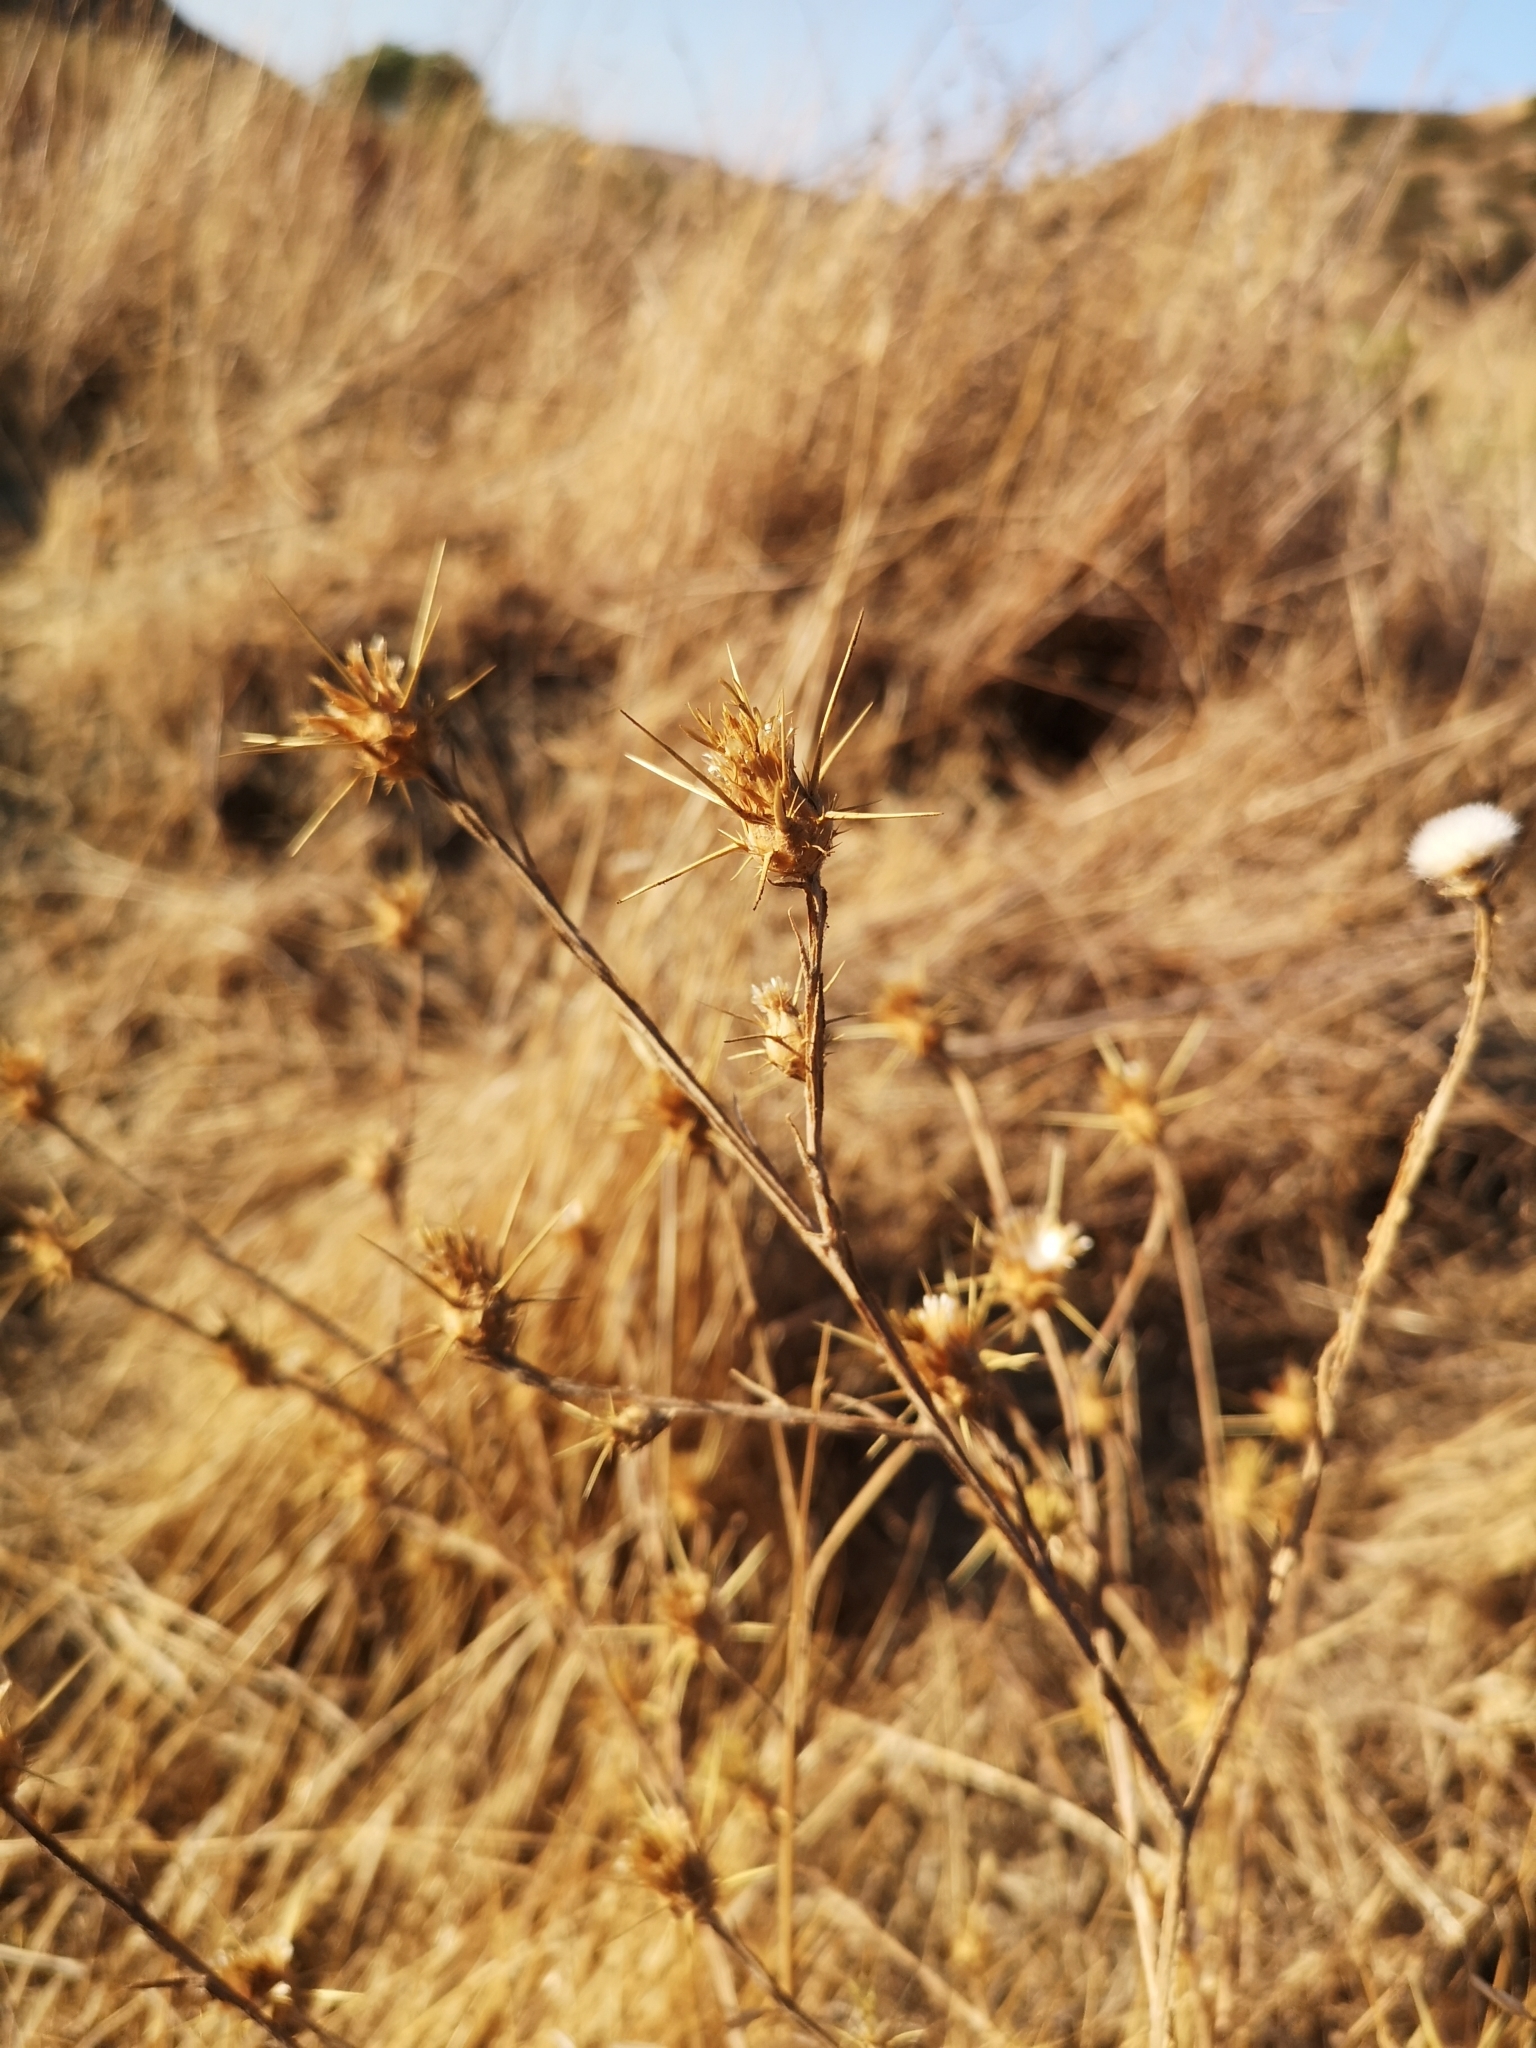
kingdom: Plantae
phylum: Tracheophyta
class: Magnoliopsida
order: Asterales
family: Asteraceae
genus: Centaurea
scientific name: Centaurea solstitialis
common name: Yellow star-thistle
